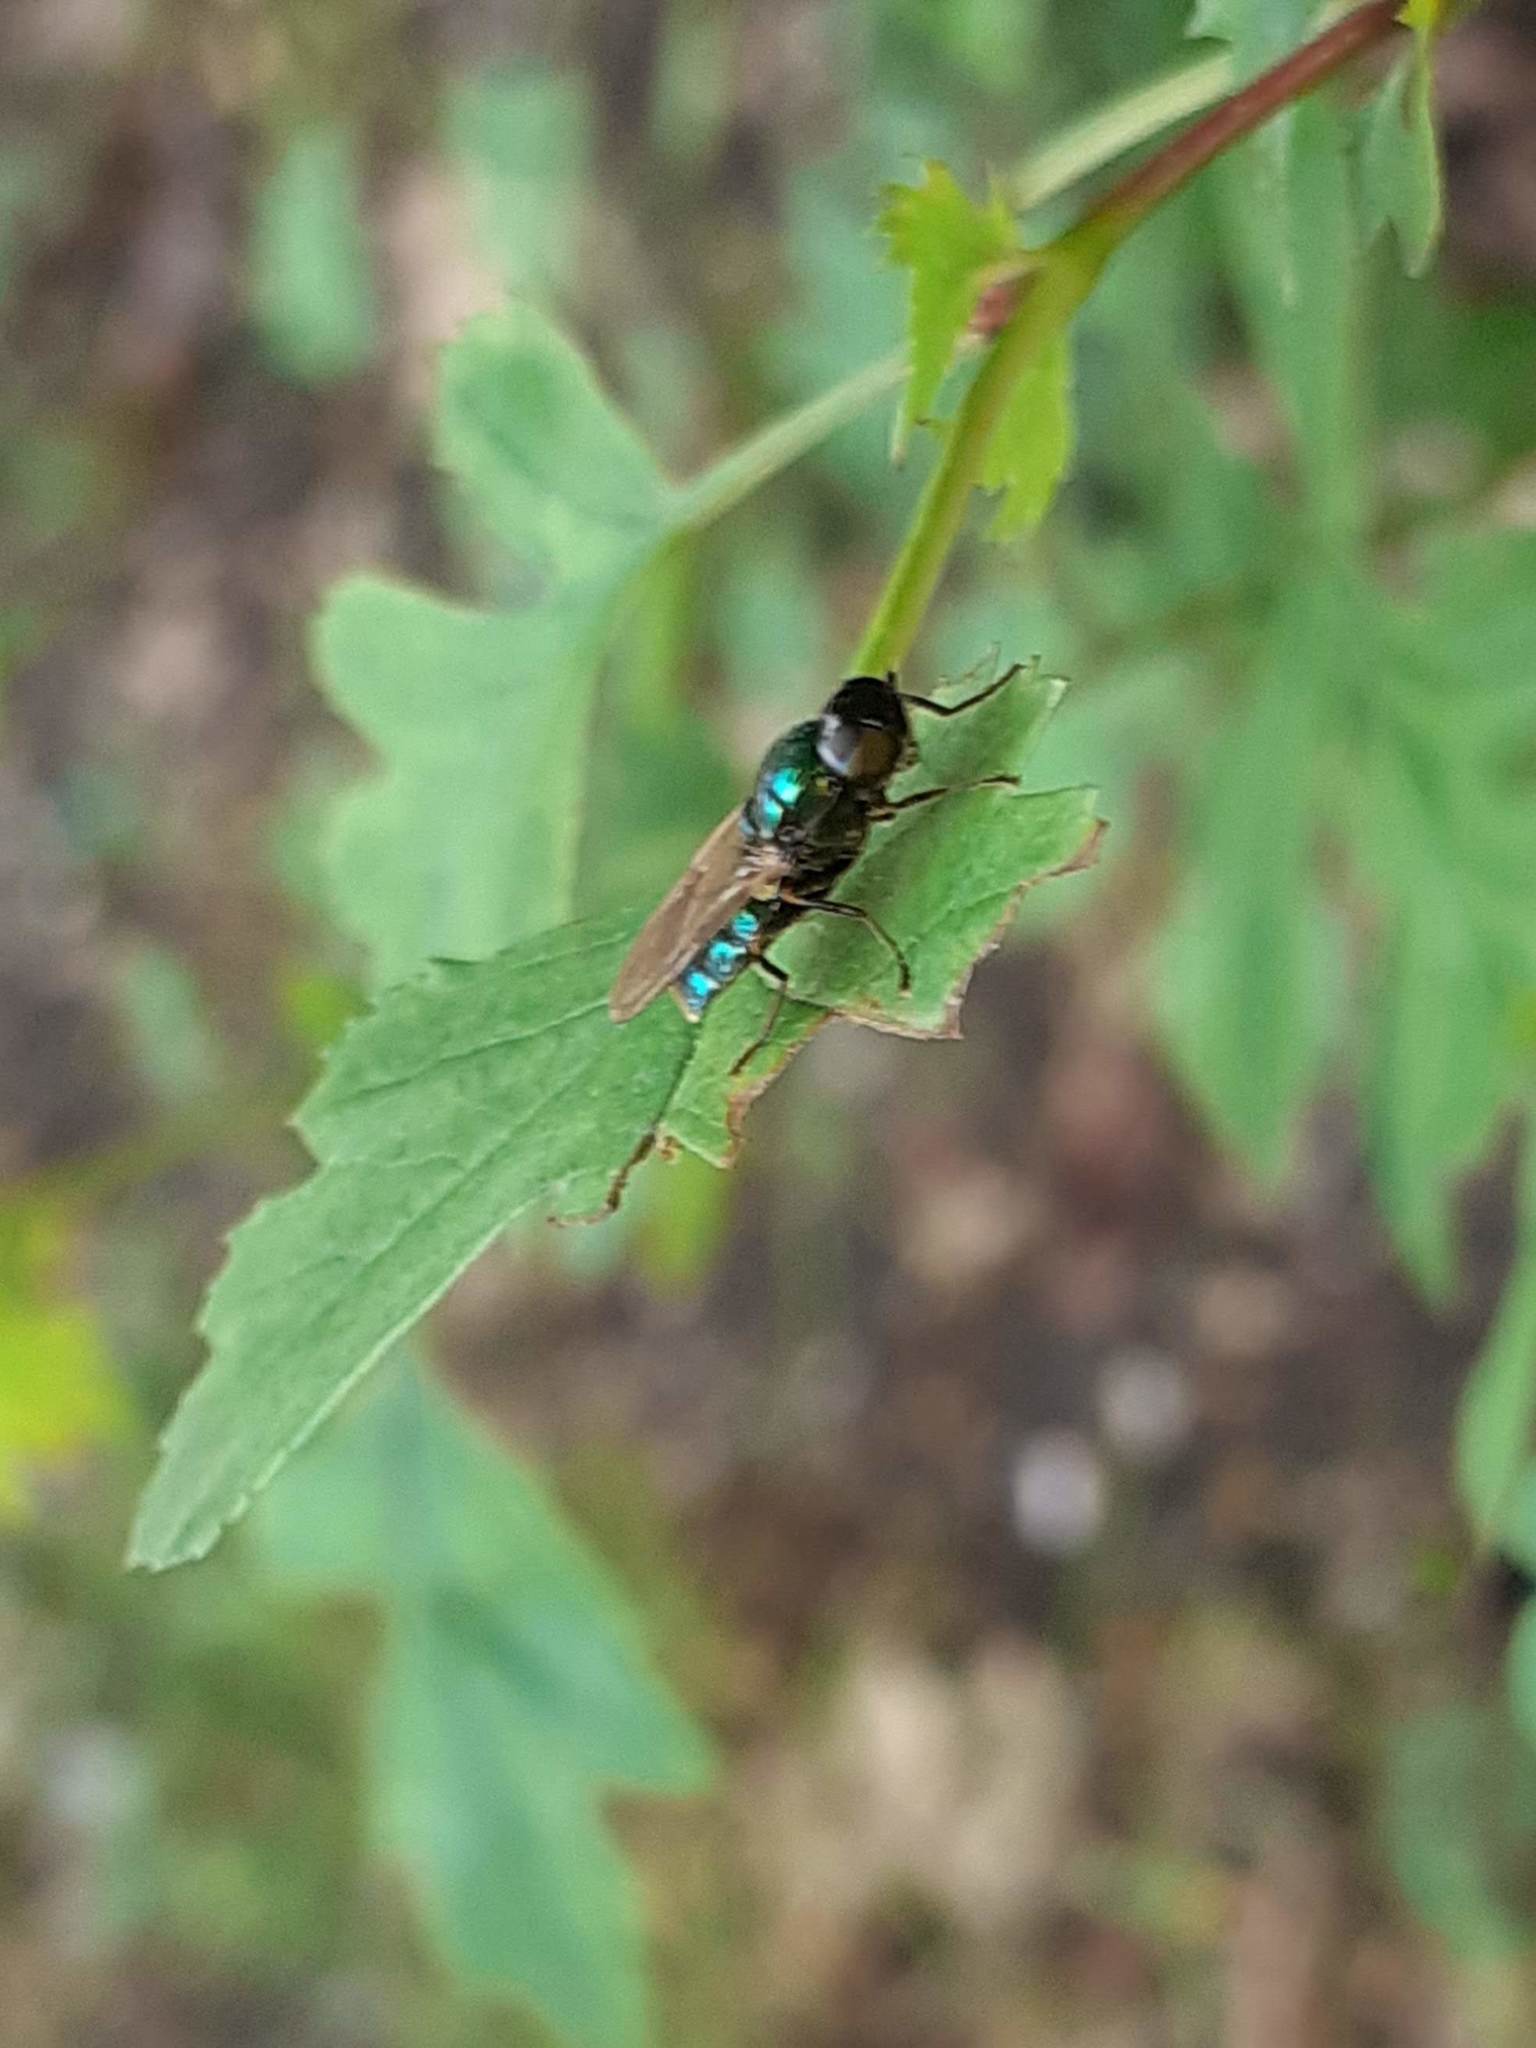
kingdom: Animalia
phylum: Arthropoda
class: Insecta
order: Diptera
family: Stratiomyidae
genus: Chloromyia
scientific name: Chloromyia formosa
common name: Soldier fly
